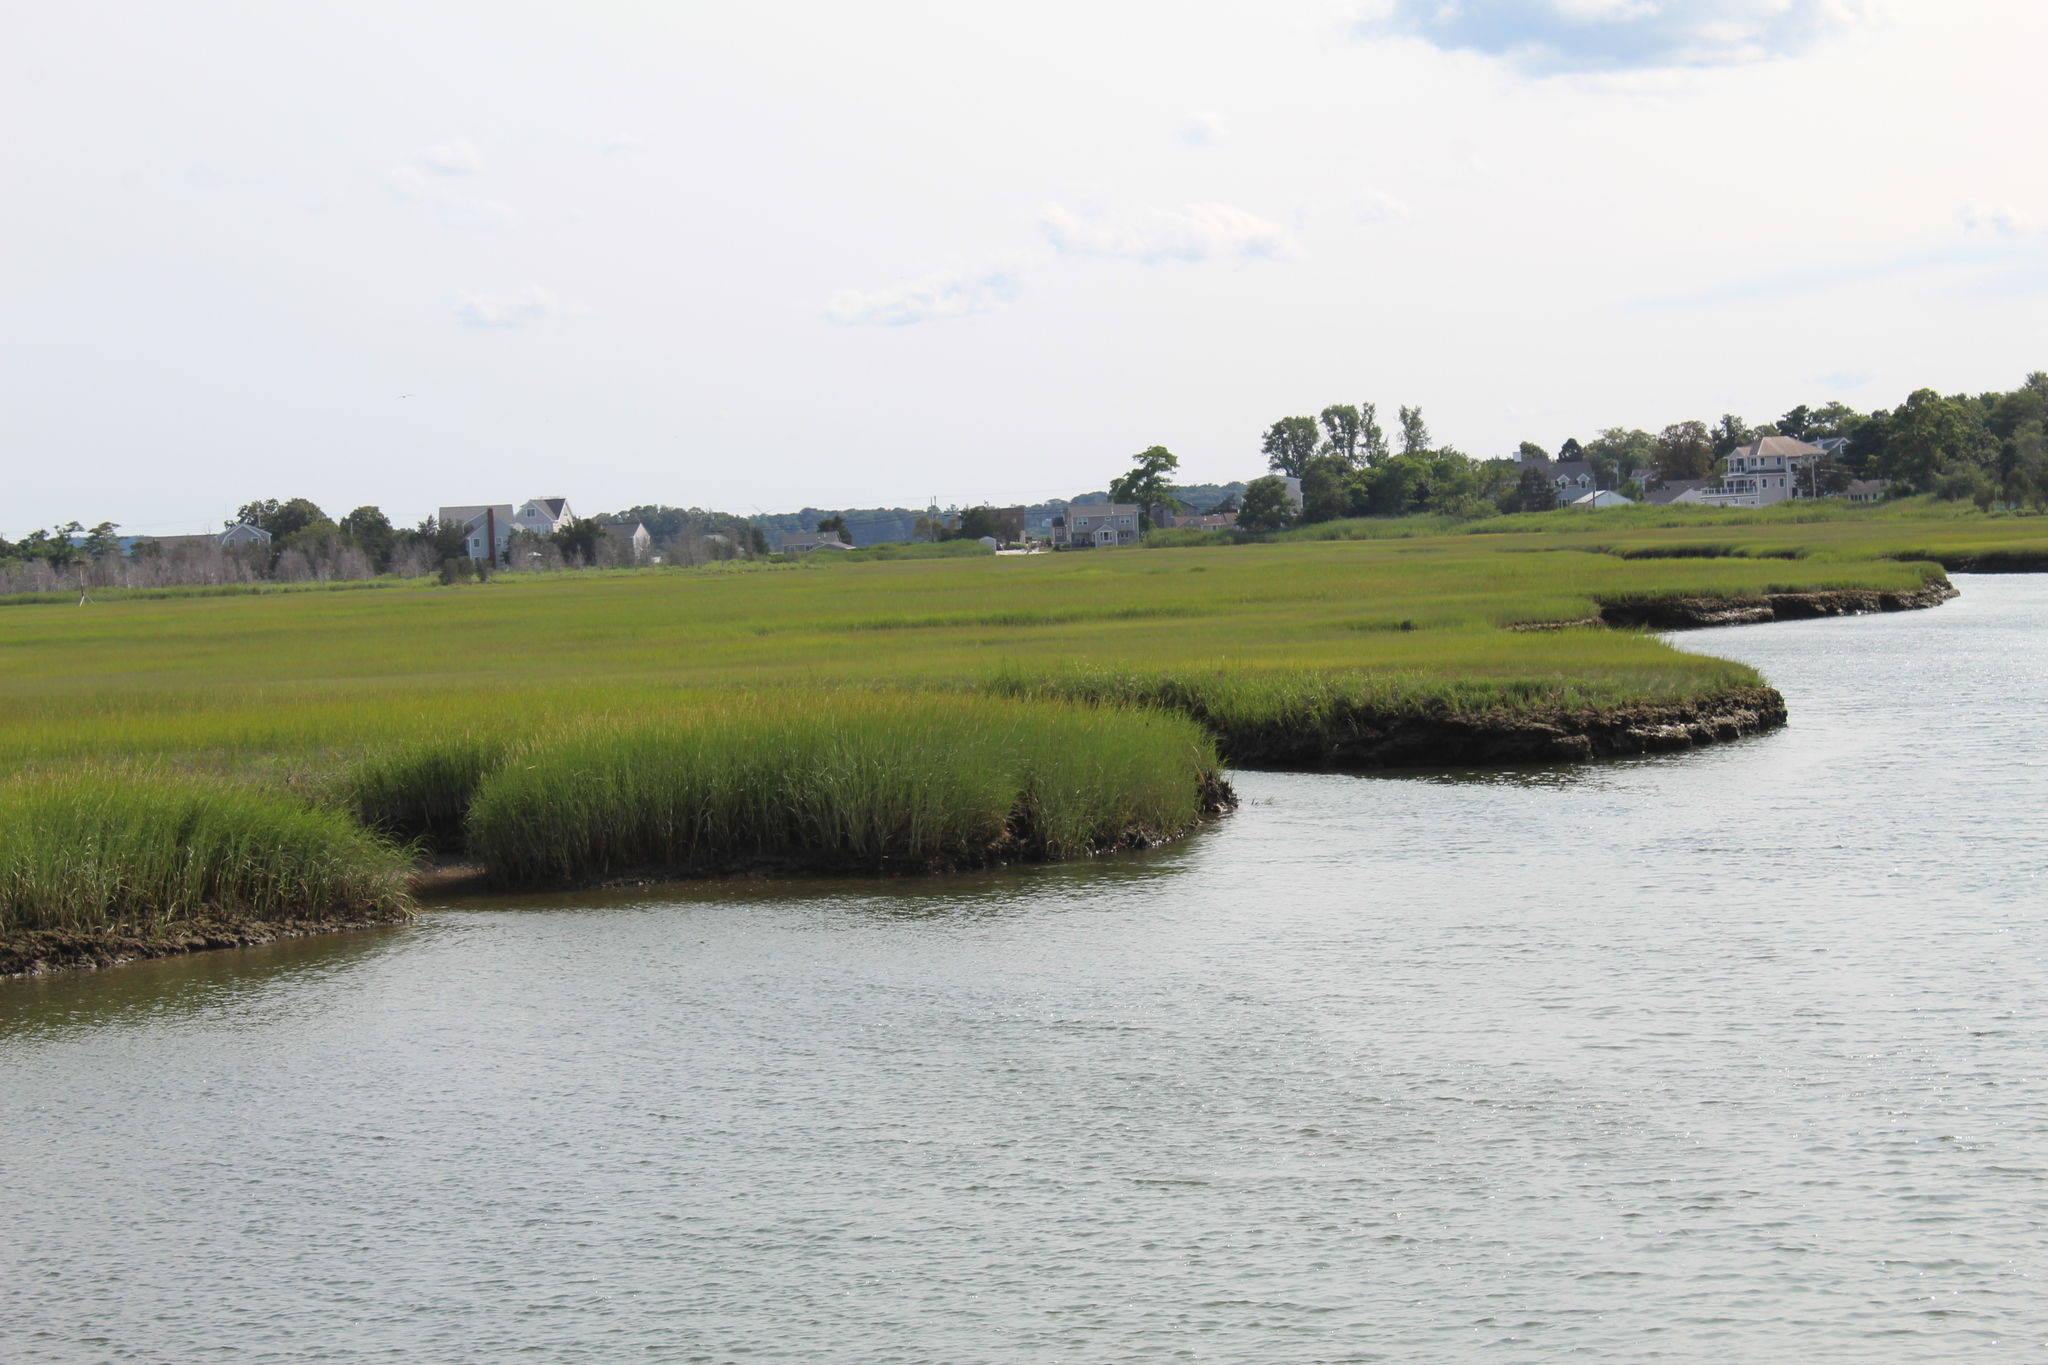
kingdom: Plantae
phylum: Tracheophyta
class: Liliopsida
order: Poales
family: Poaceae
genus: Sporobolus
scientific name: Sporobolus alterniflorus
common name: Atlantic cordgrass
